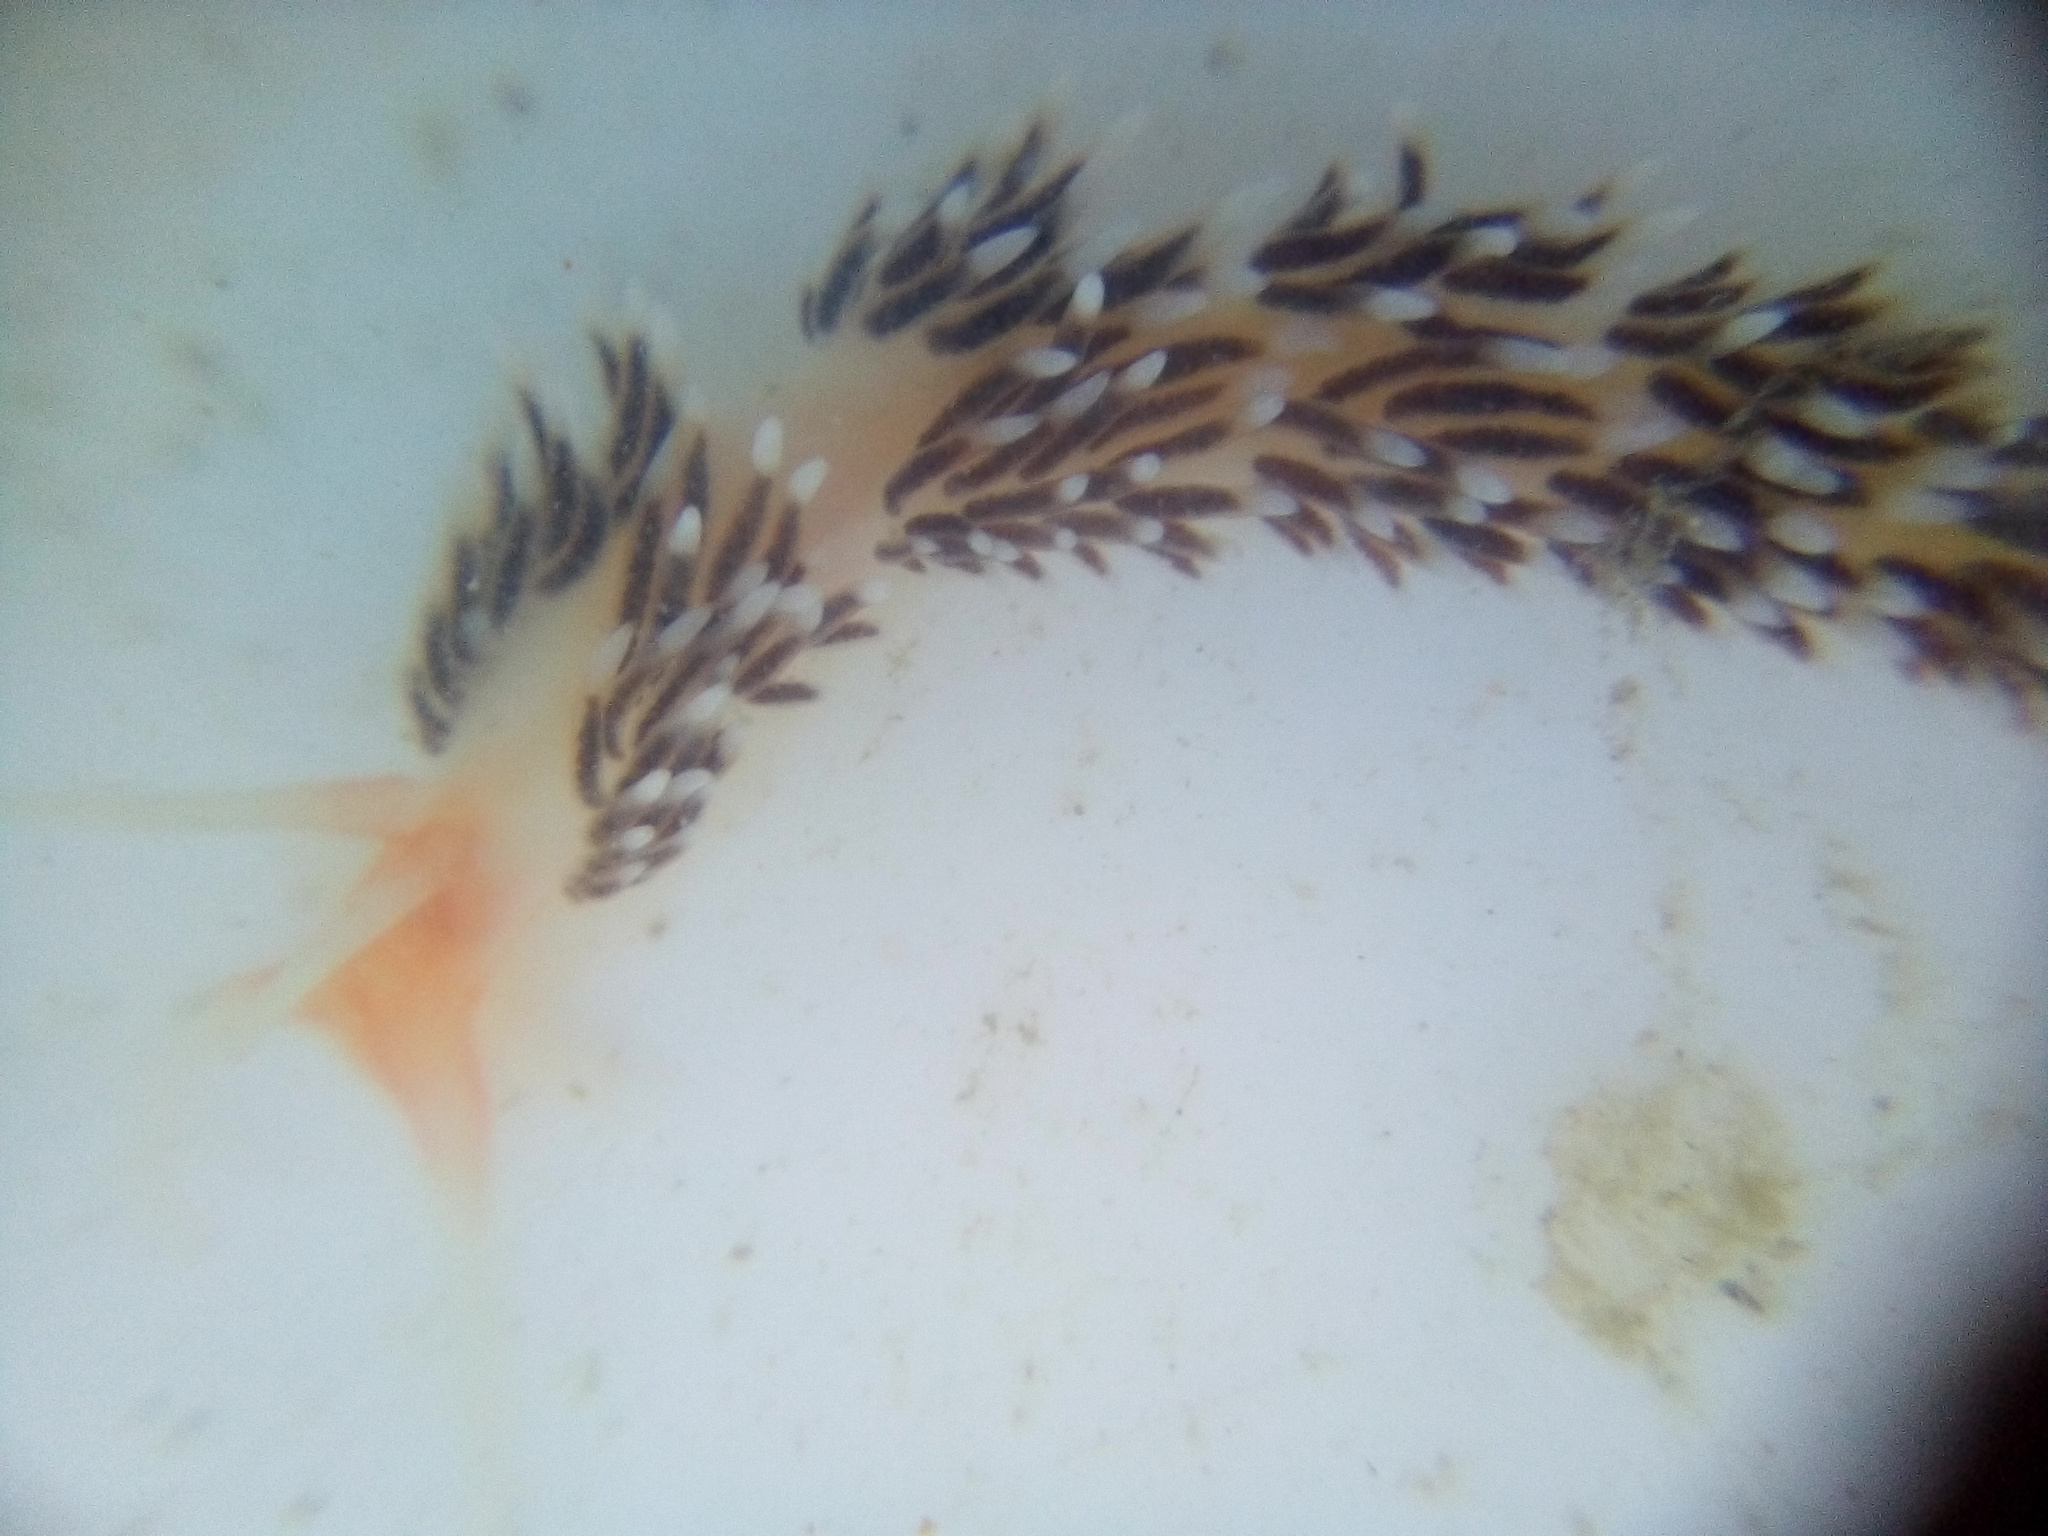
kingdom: Animalia
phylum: Mollusca
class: Gastropoda
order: Nudibranchia
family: Facelinidae
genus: Phidiana
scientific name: Phidiana milleri
